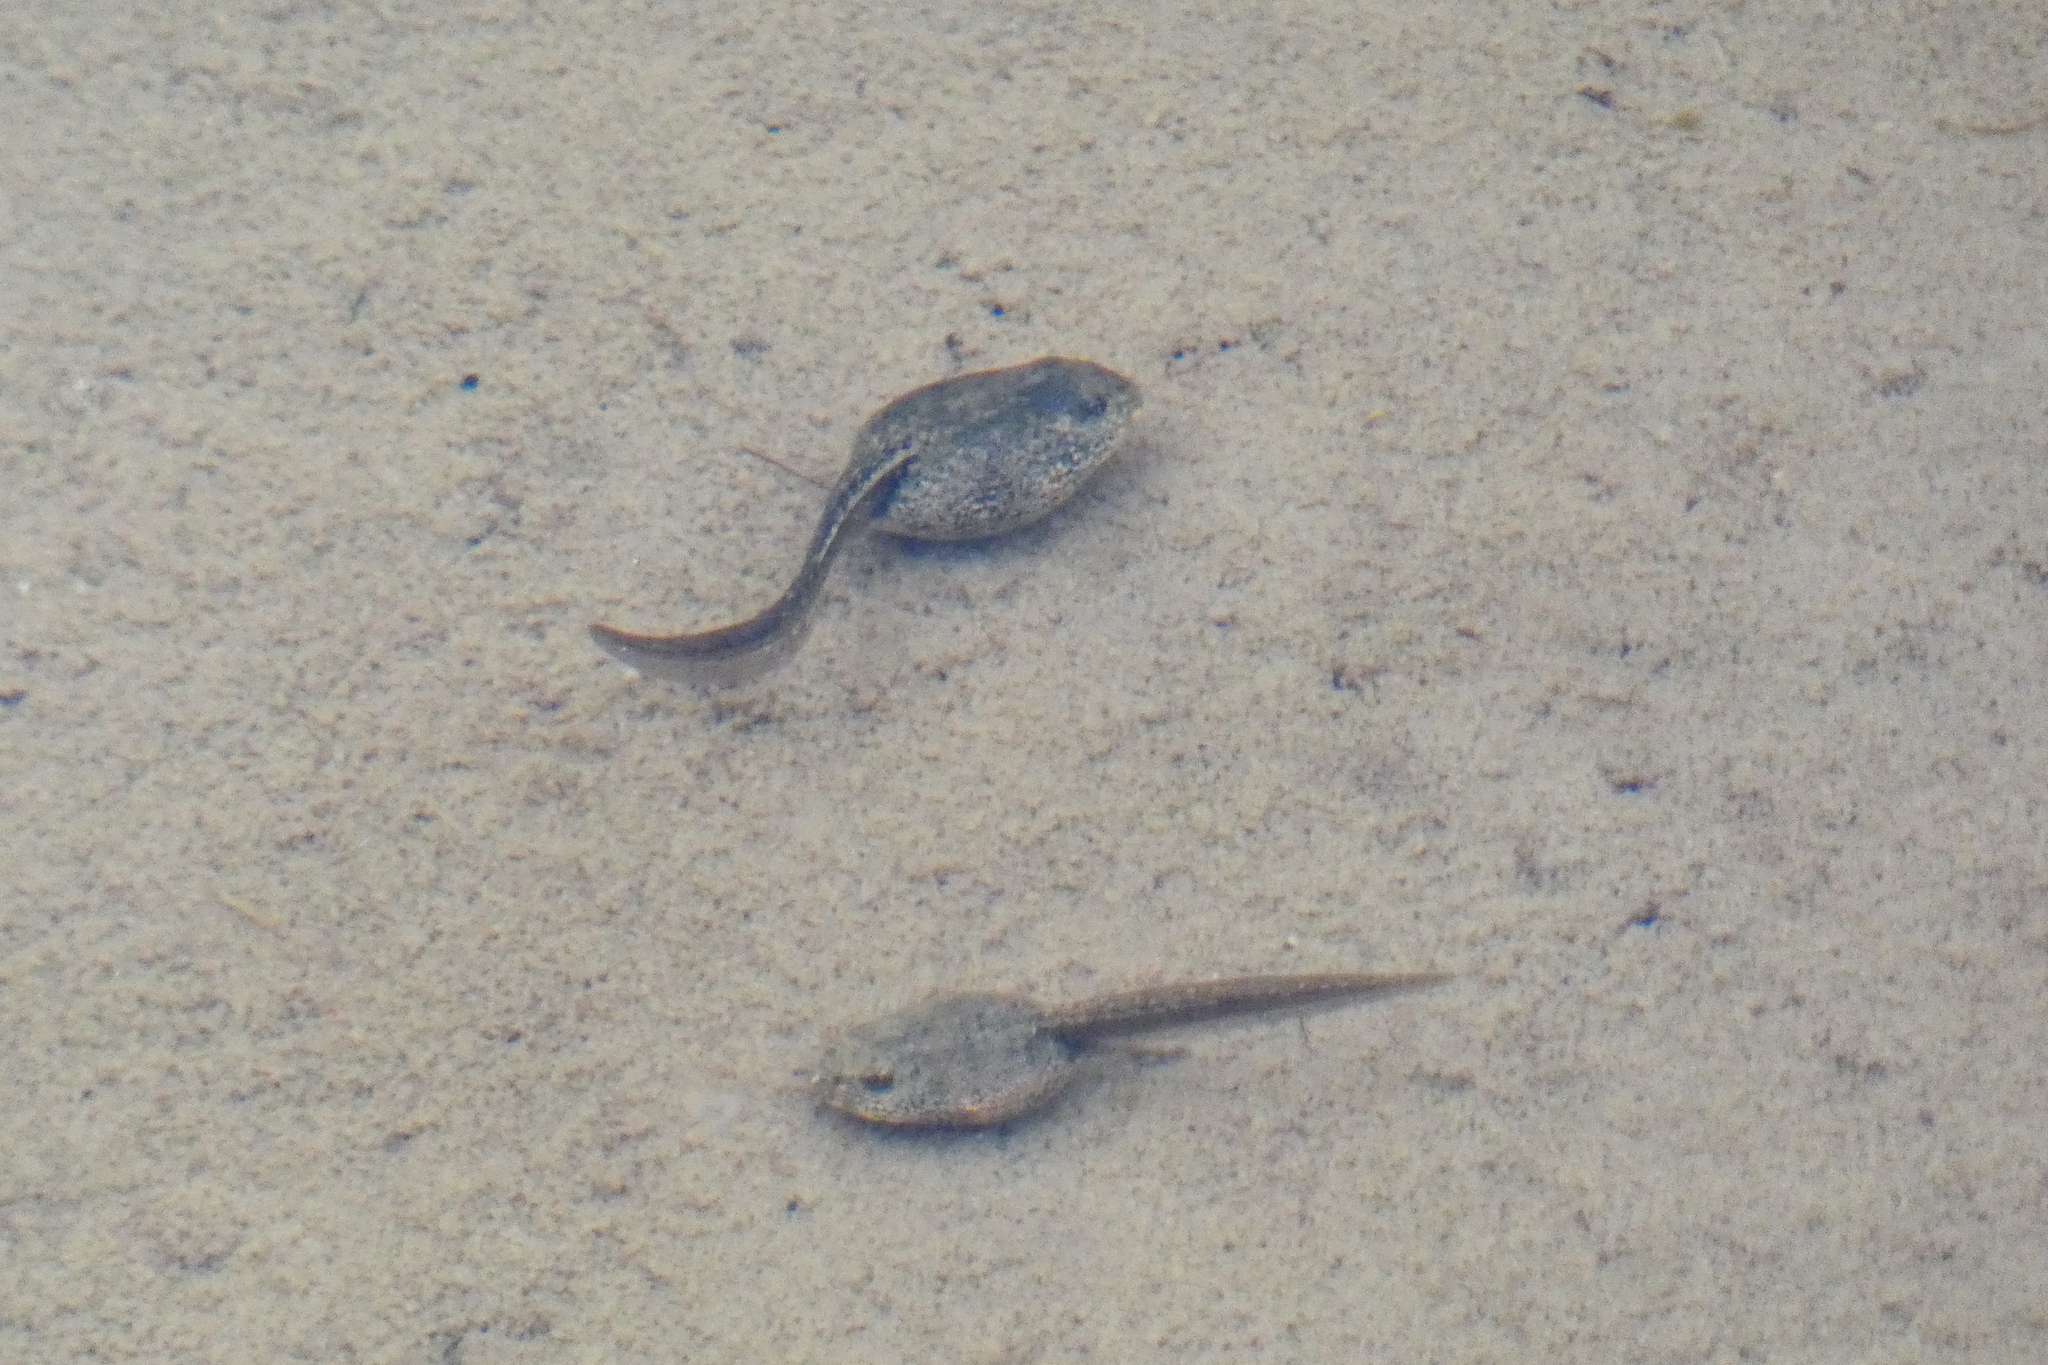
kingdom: Animalia
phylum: Chordata
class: Amphibia
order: Anura
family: Ranidae
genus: Rana
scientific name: Rana temporaria
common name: Common frog
